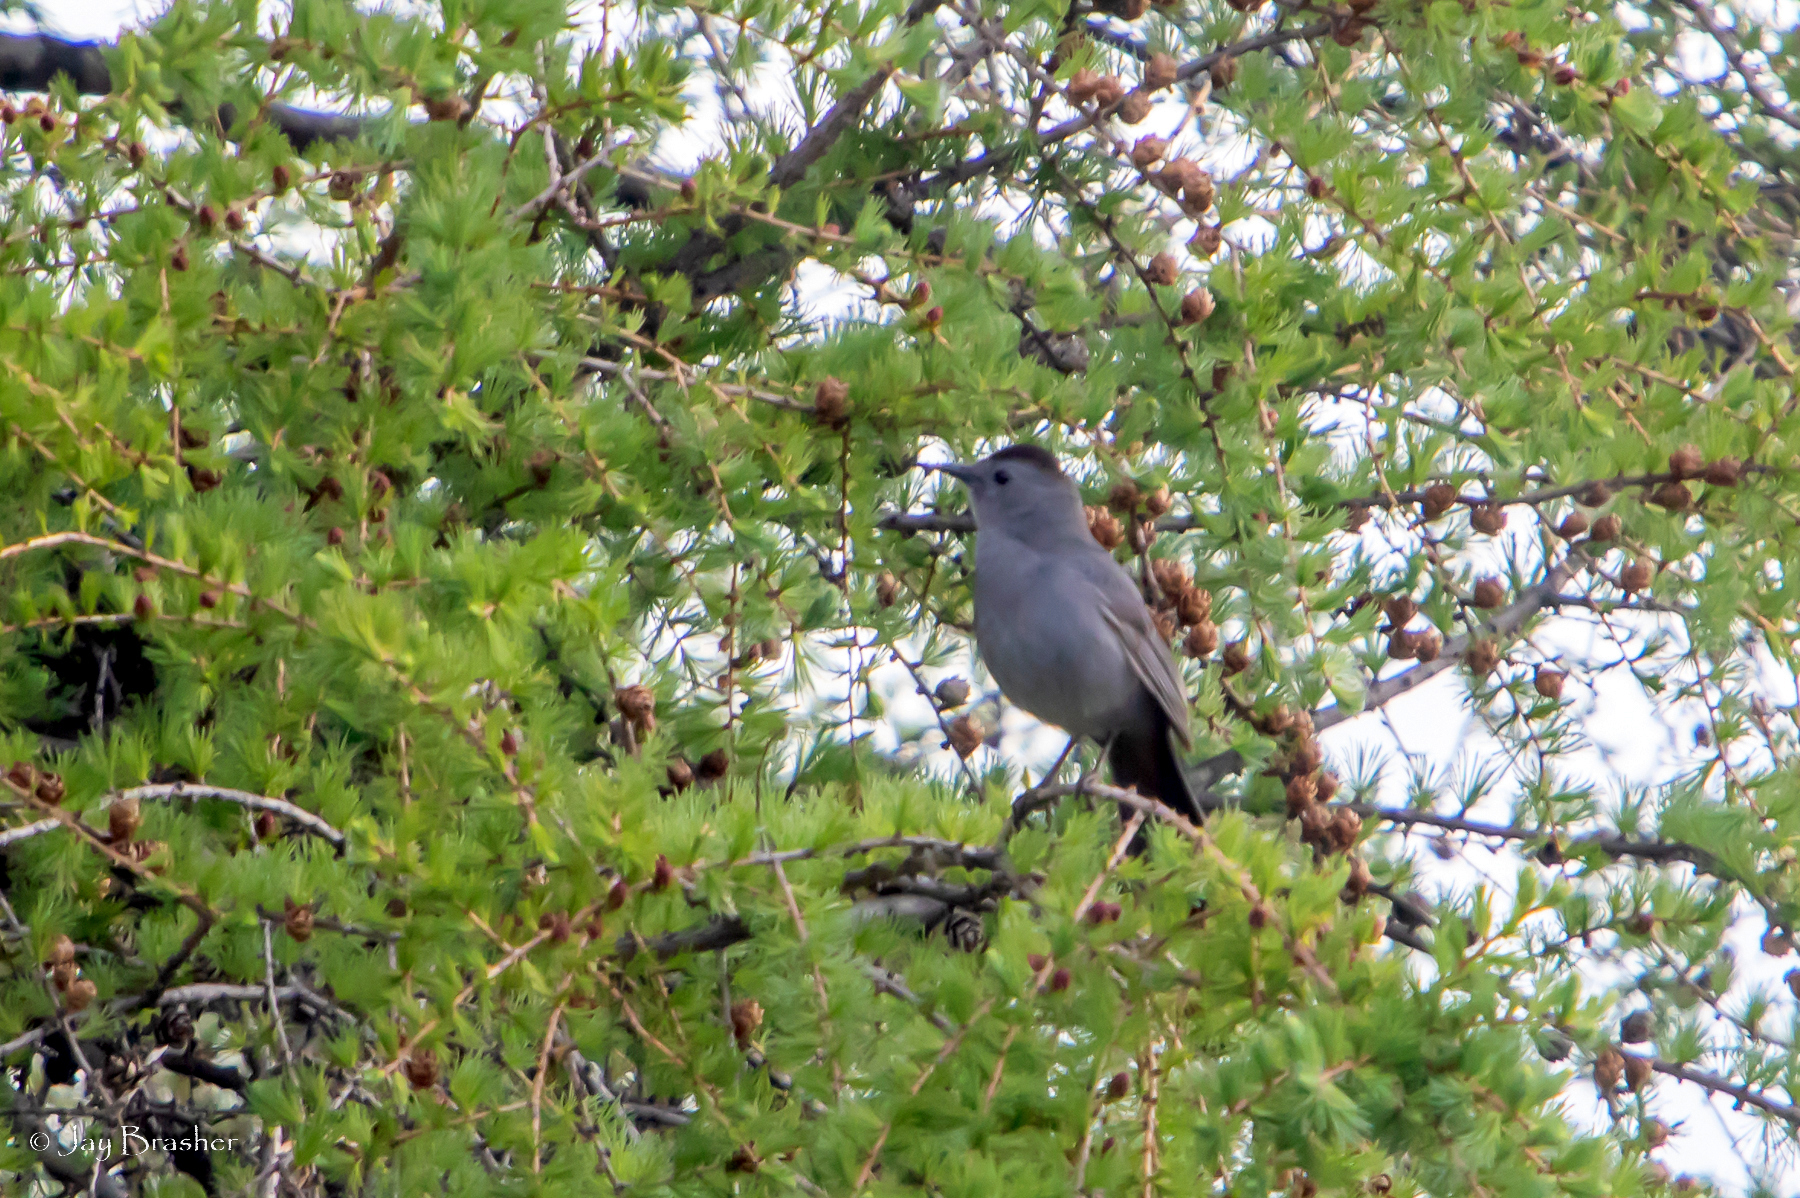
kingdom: Animalia
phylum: Chordata
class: Aves
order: Passeriformes
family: Mimidae
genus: Dumetella
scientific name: Dumetella carolinensis
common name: Gray catbird
